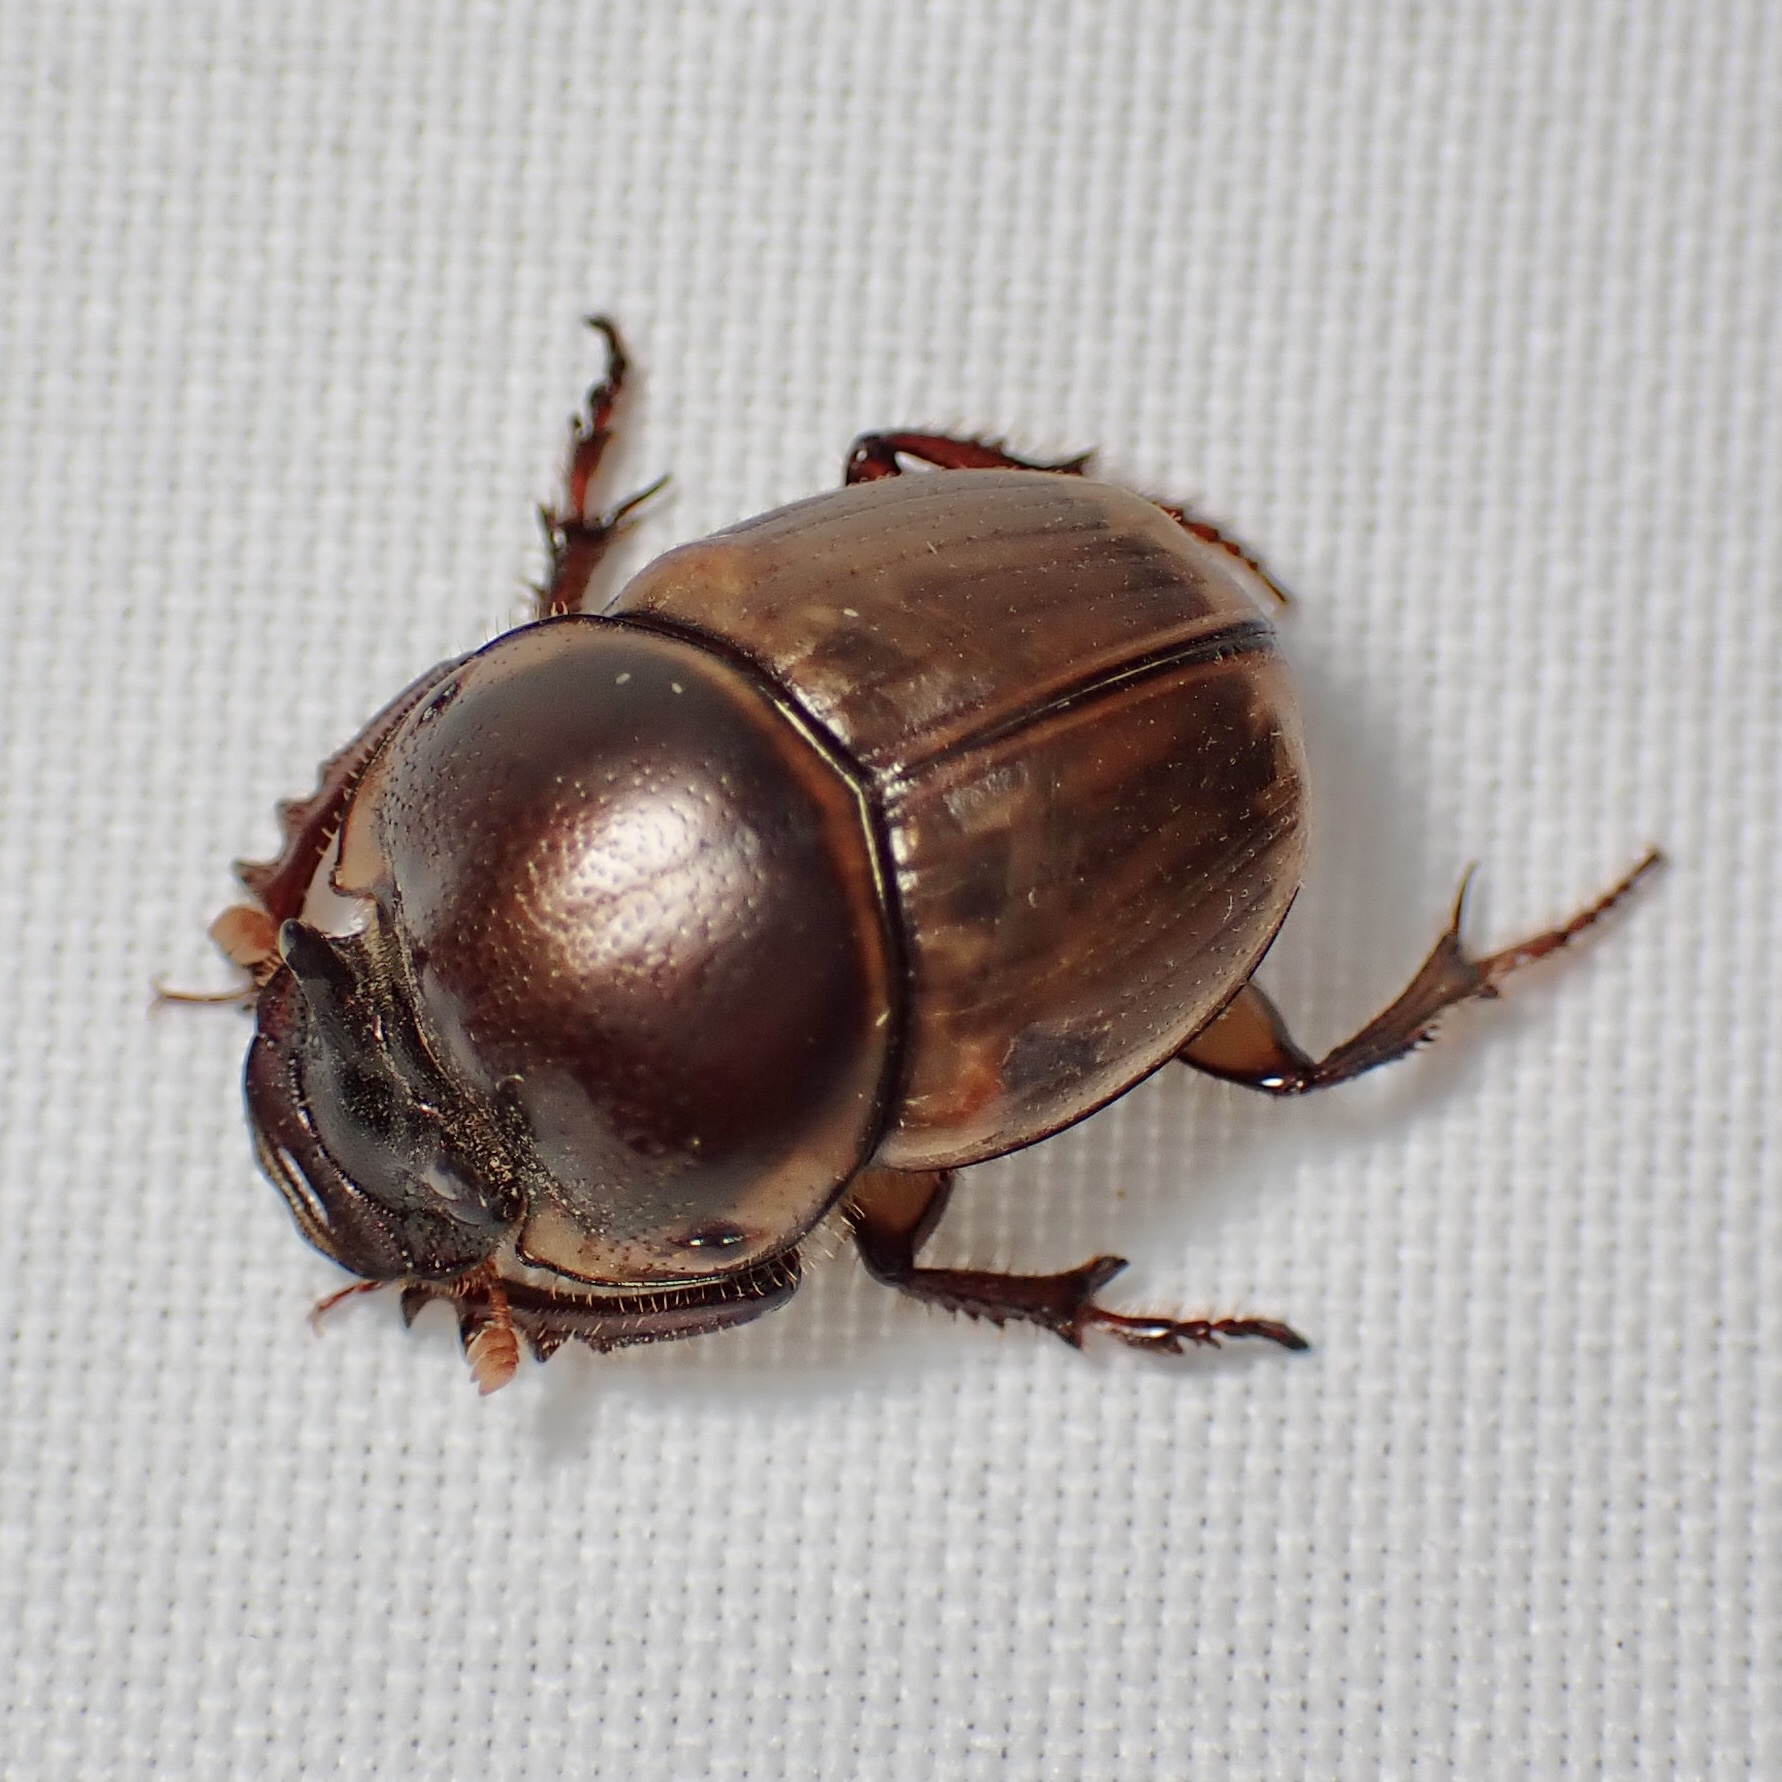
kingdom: Animalia
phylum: Arthropoda
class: Insecta
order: Coleoptera
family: Scarabaeidae
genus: Digitonthophagus
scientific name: Digitonthophagus gazella
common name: Brown dung beetle
